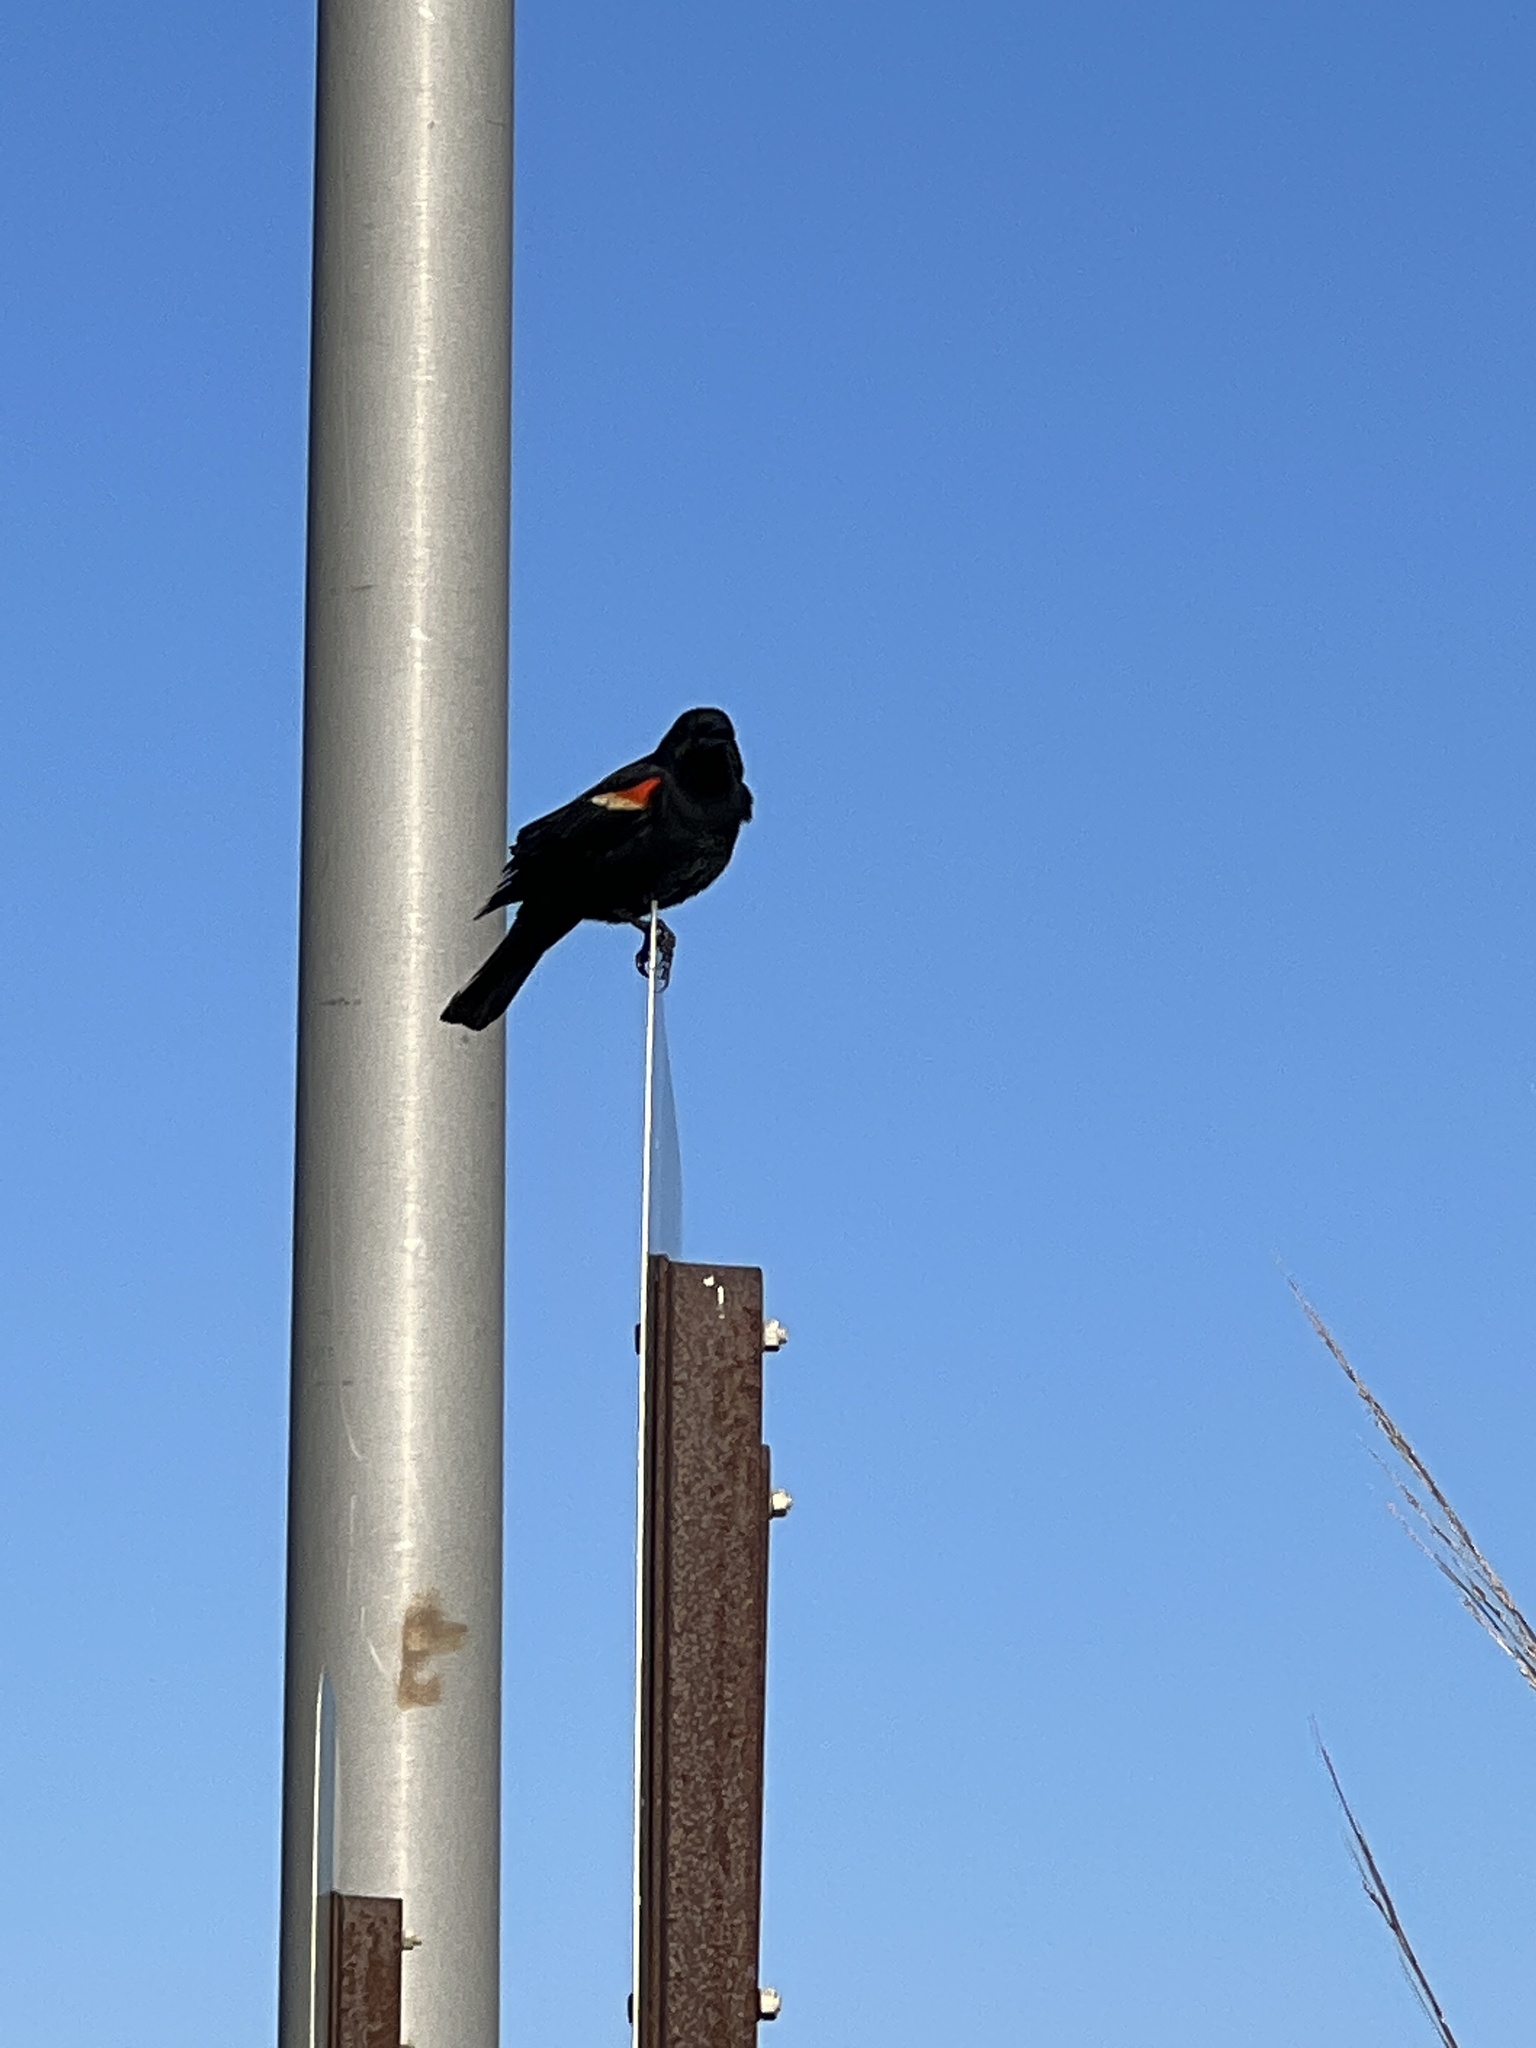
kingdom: Animalia
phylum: Chordata
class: Aves
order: Passeriformes
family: Icteridae
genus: Agelaius
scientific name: Agelaius phoeniceus
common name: Red-winged blackbird
